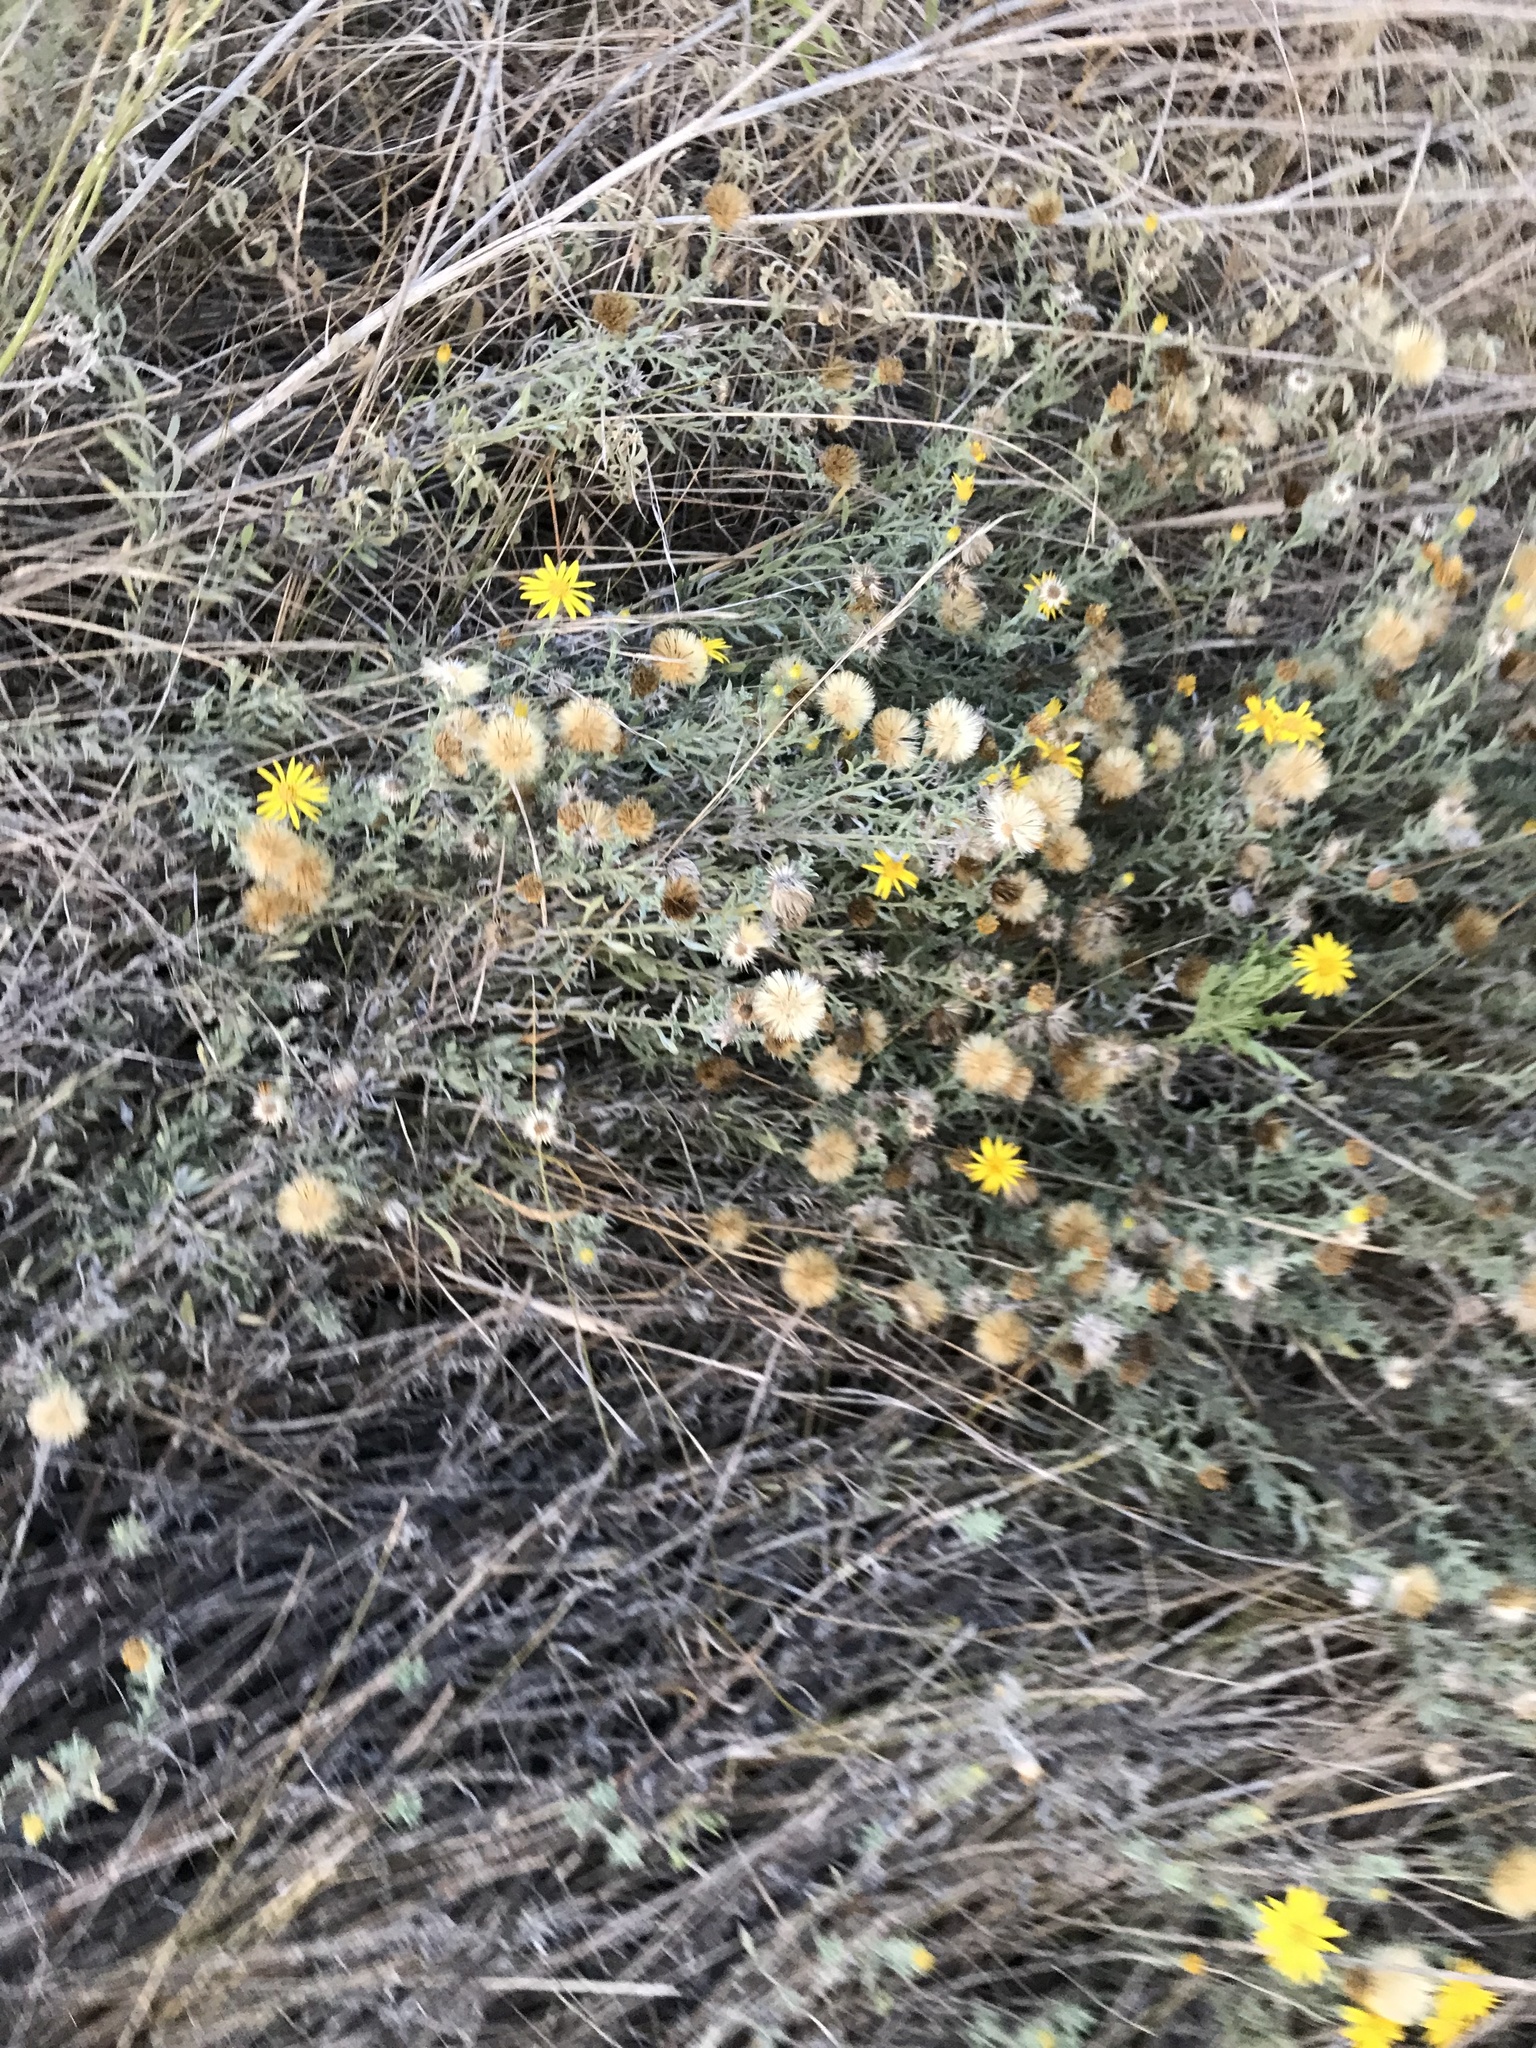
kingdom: Plantae
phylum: Tracheophyta
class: Magnoliopsida
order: Asterales
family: Asteraceae
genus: Heterotheca
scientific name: Heterotheca canescens
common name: Hoary golden-aster
